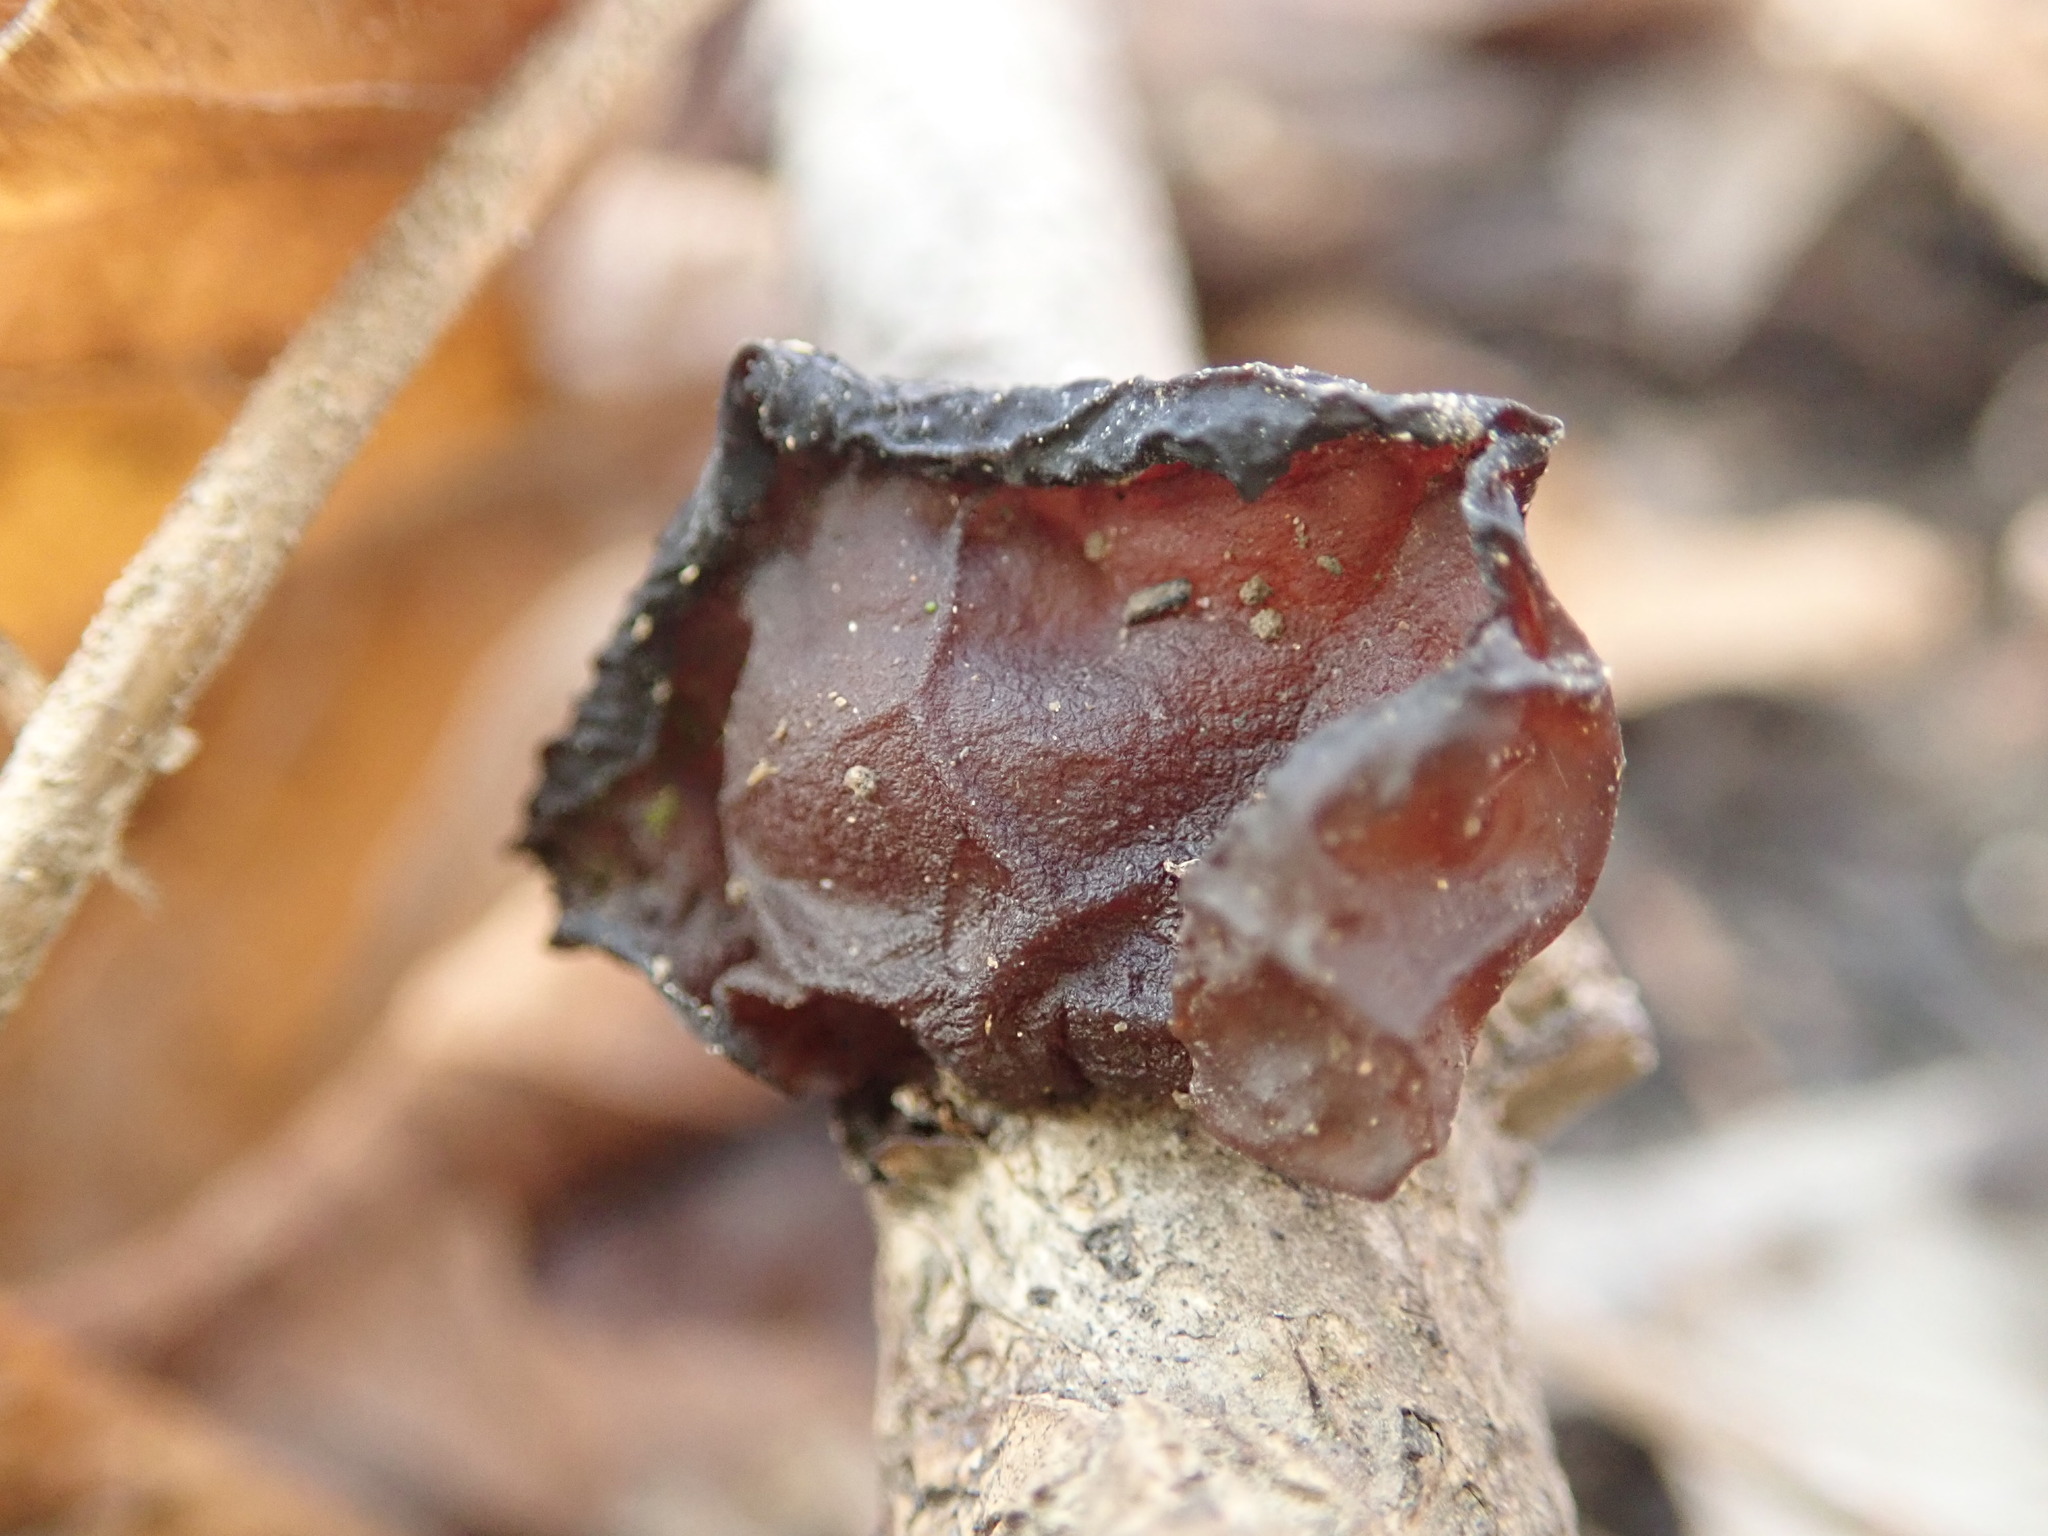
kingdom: Fungi
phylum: Basidiomycota
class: Agaricomycetes
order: Auriculariales
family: Auriculariaceae
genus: Exidia
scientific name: Exidia
